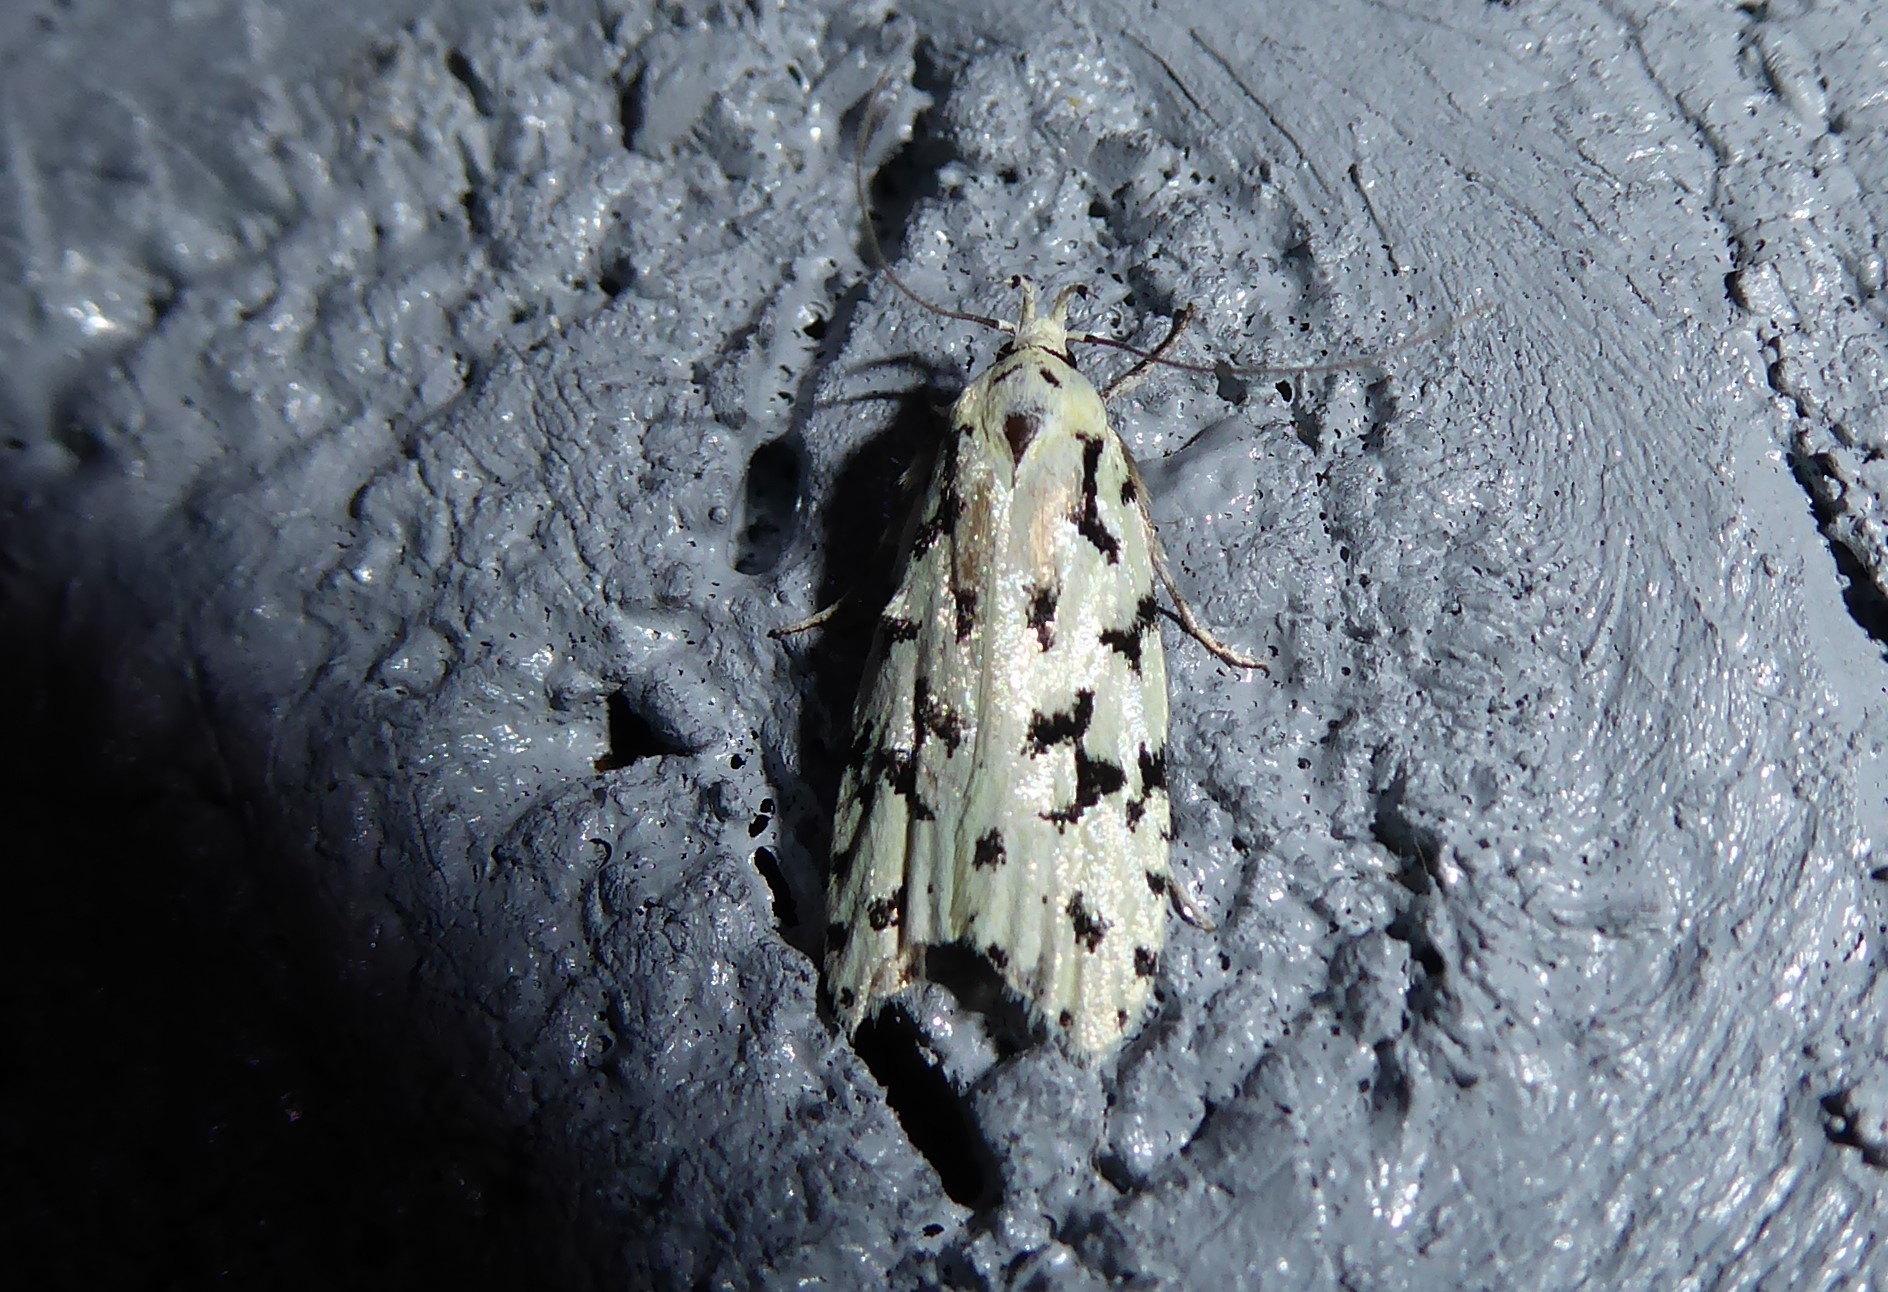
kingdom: Animalia
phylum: Arthropoda
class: Insecta
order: Lepidoptera
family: Oecophoridae
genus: Izatha
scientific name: Izatha huttoni
